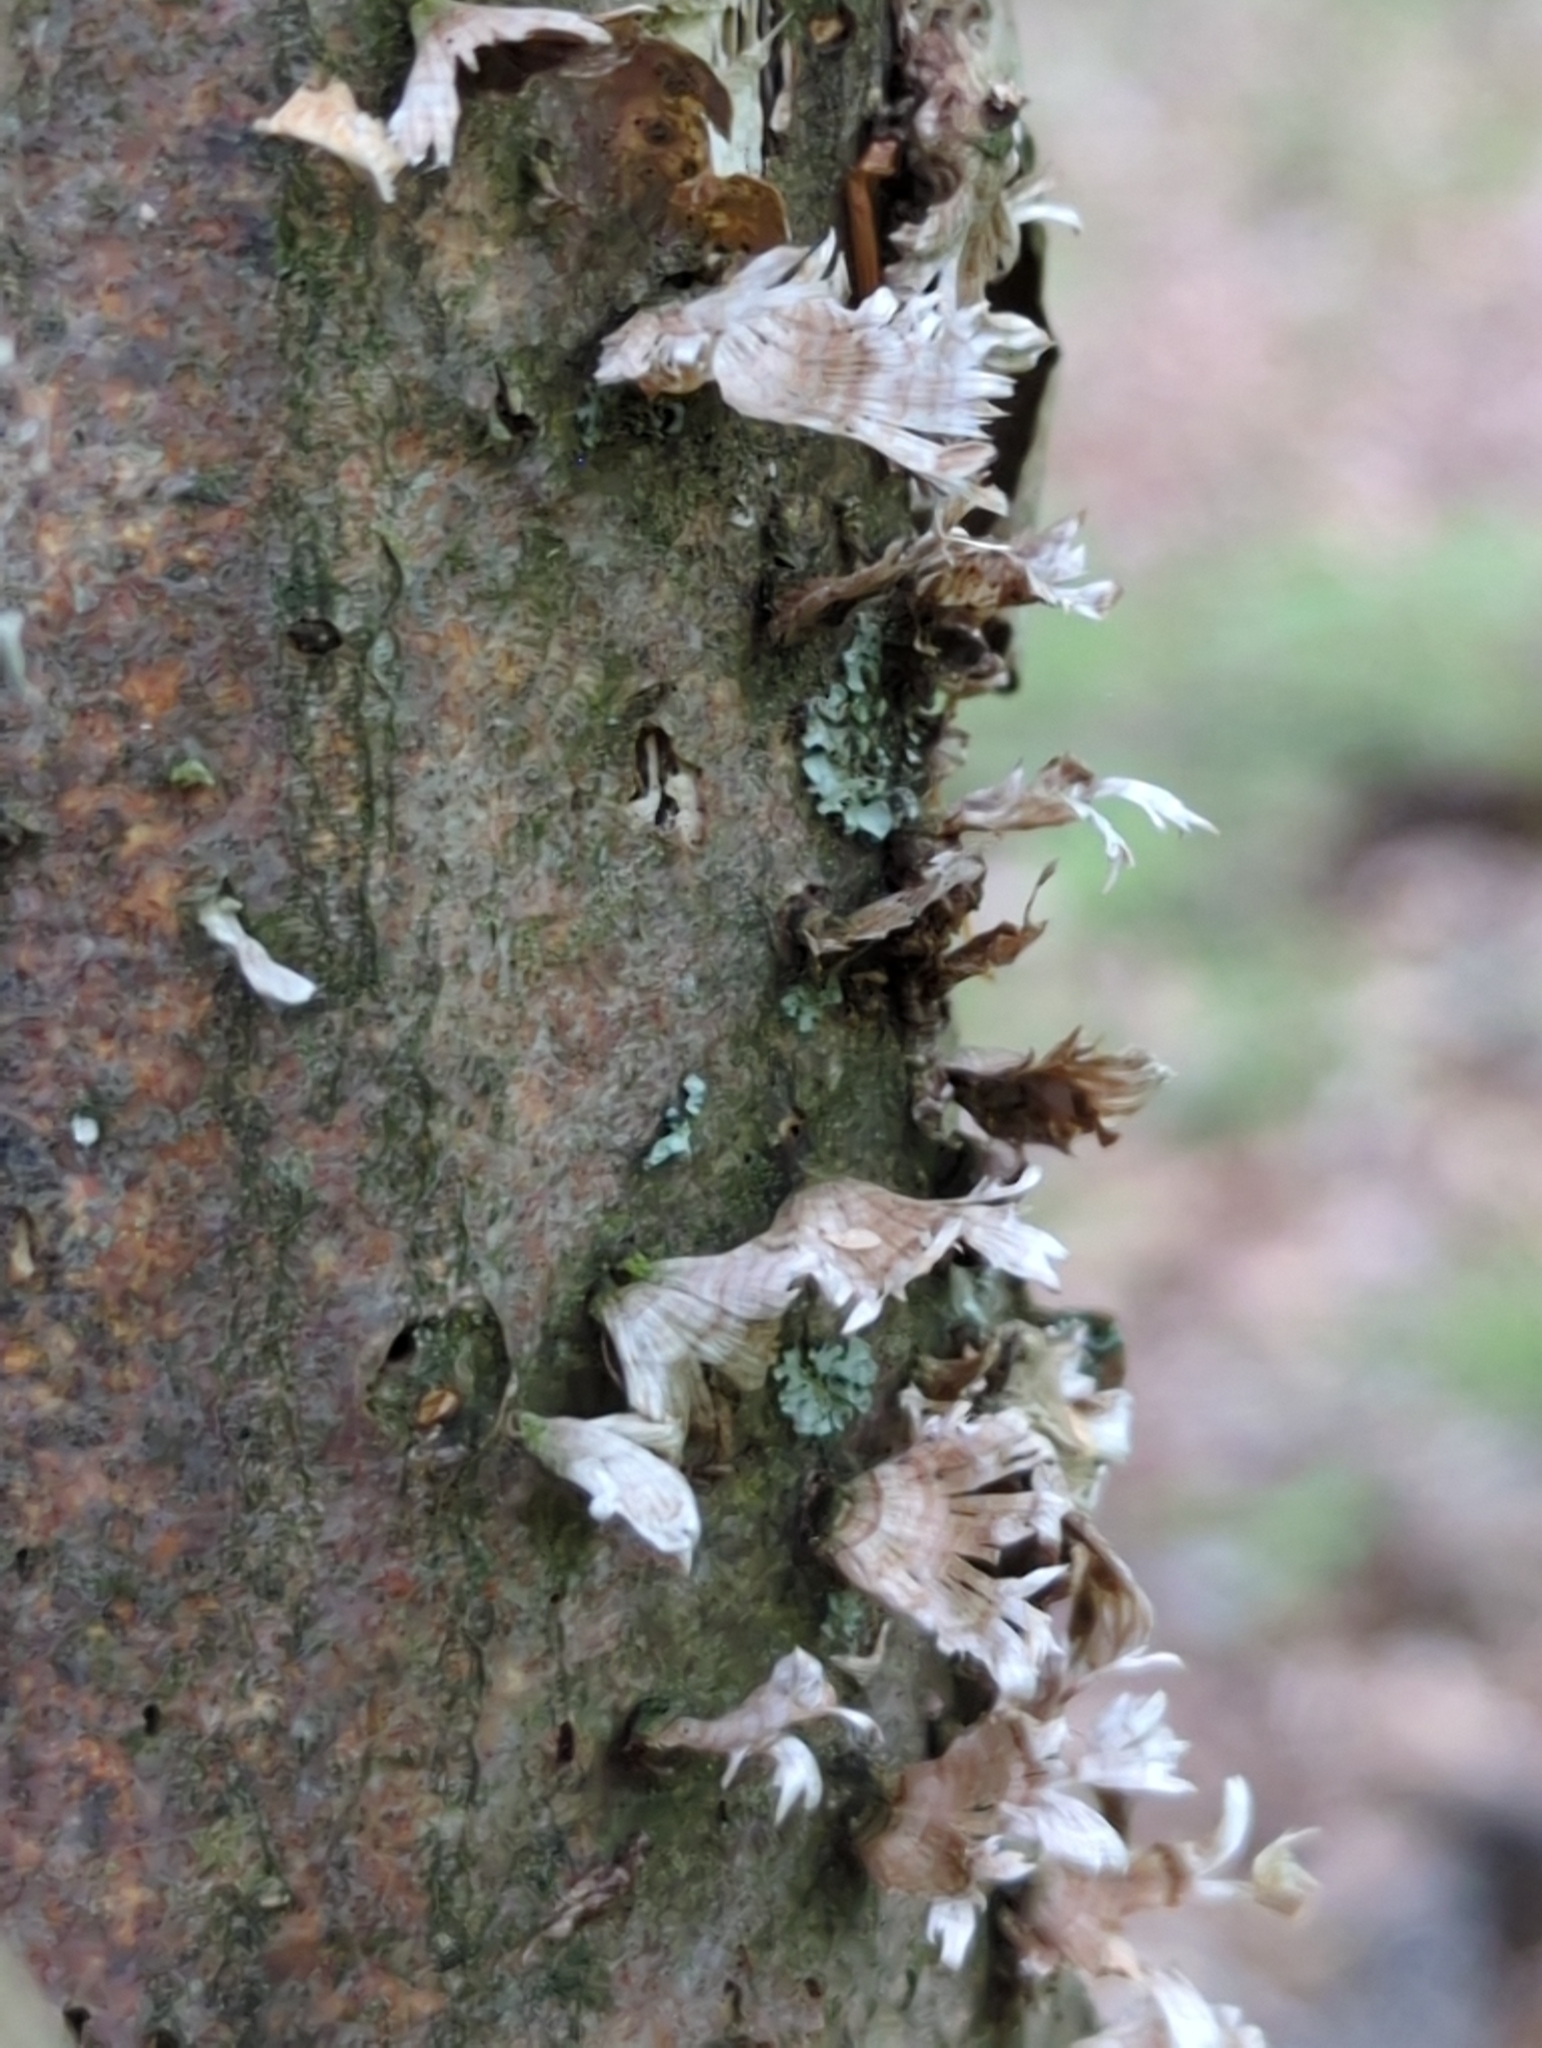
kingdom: Fungi
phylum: Basidiomycota
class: Agaricomycetes
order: Russulales
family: Stereaceae
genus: Stereum
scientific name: Stereum striatum
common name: Silky parchment
